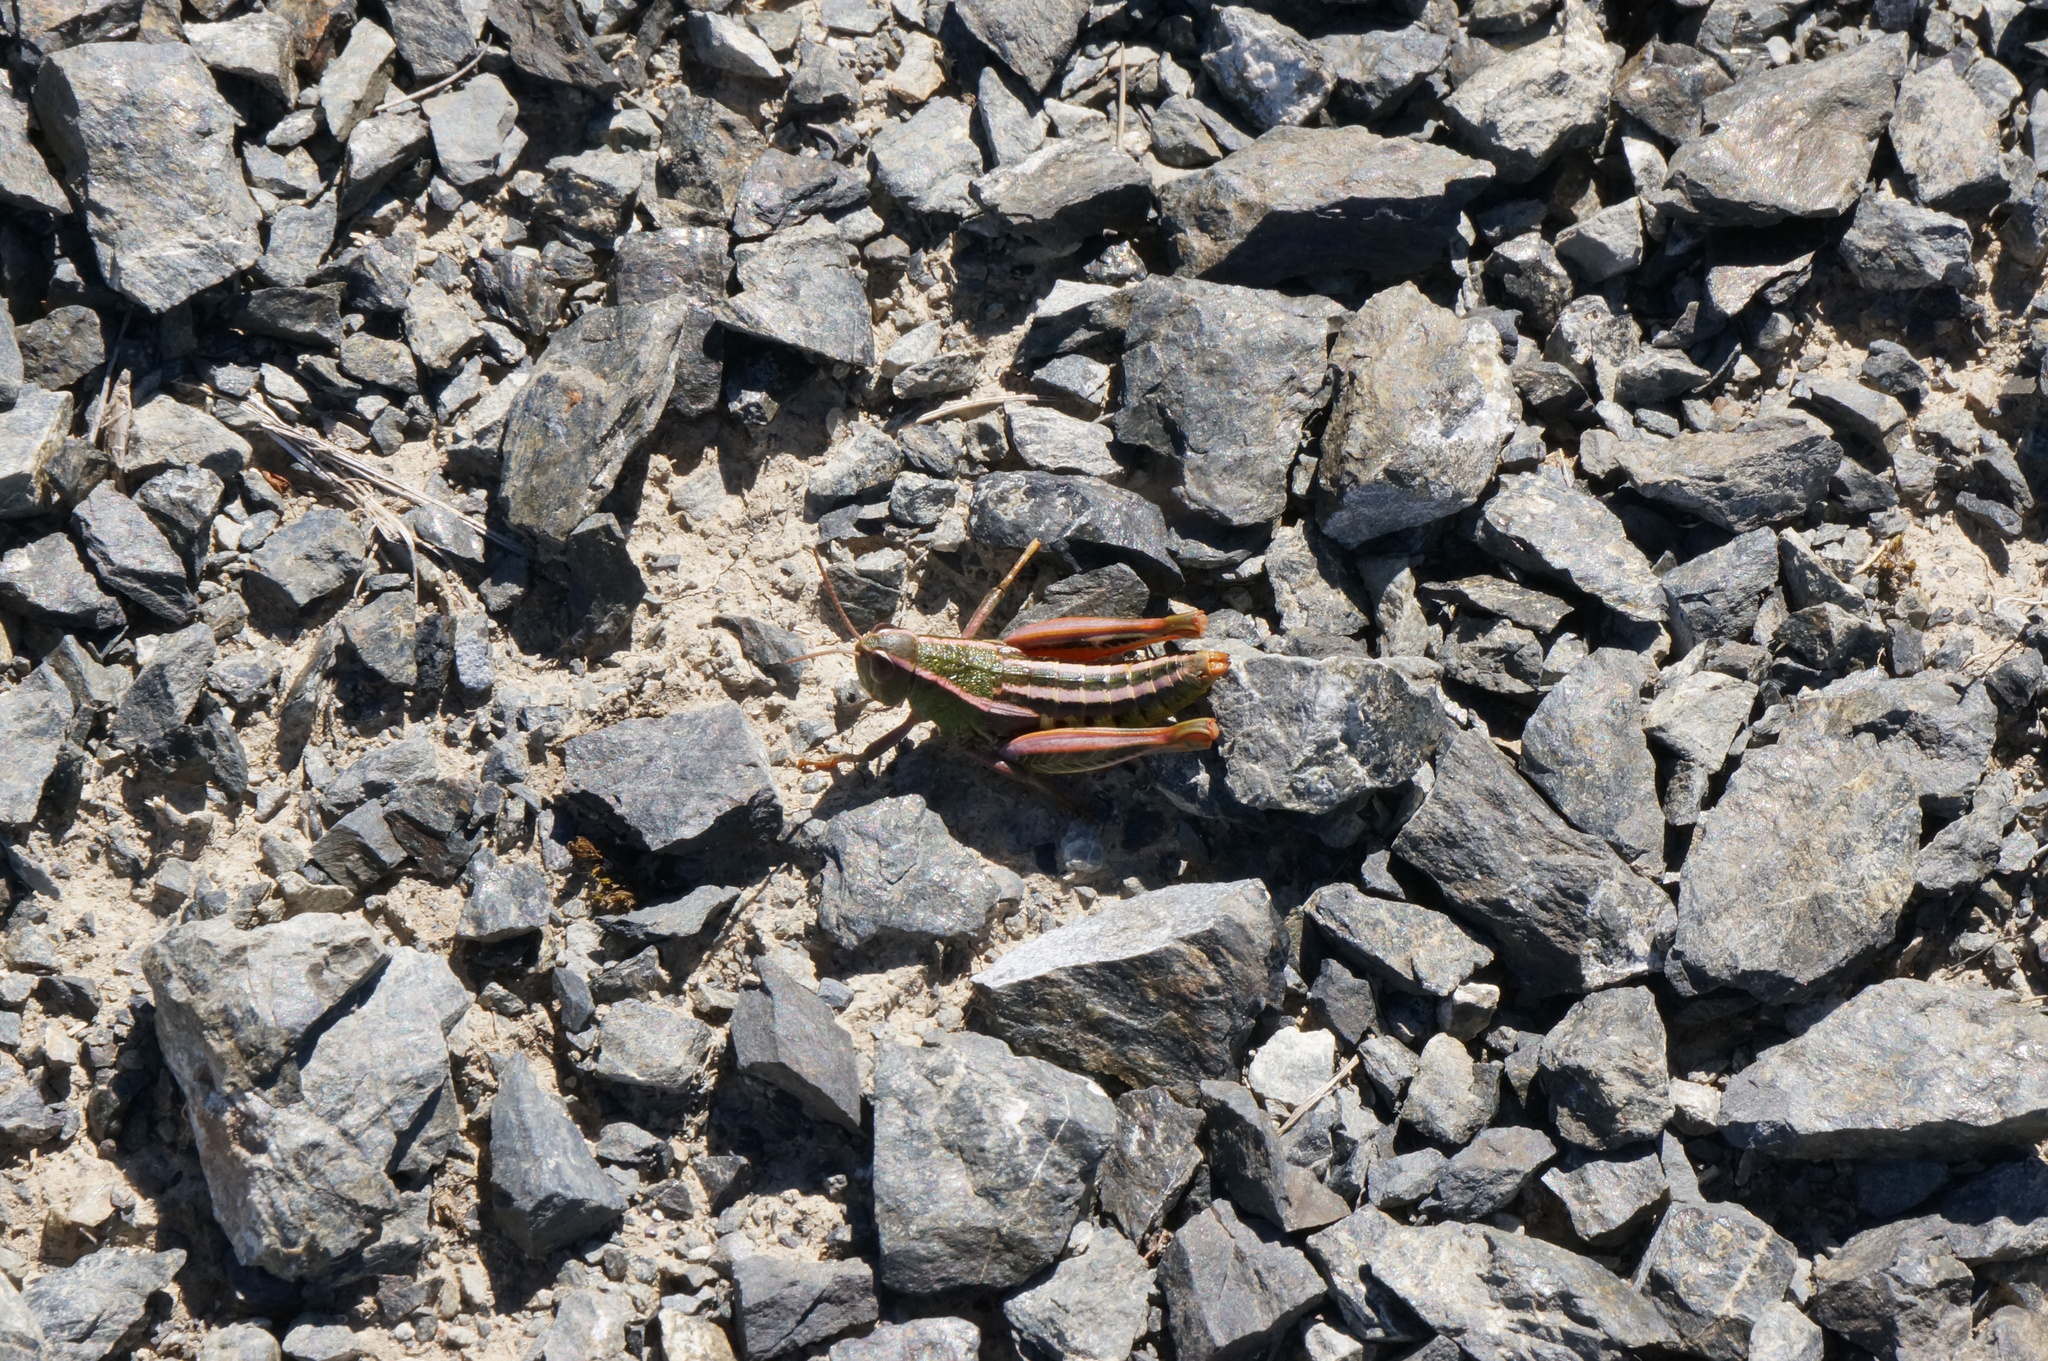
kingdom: Animalia
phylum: Arthropoda
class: Insecta
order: Orthoptera
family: Acrididae
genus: Sigaus
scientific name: Sigaus
